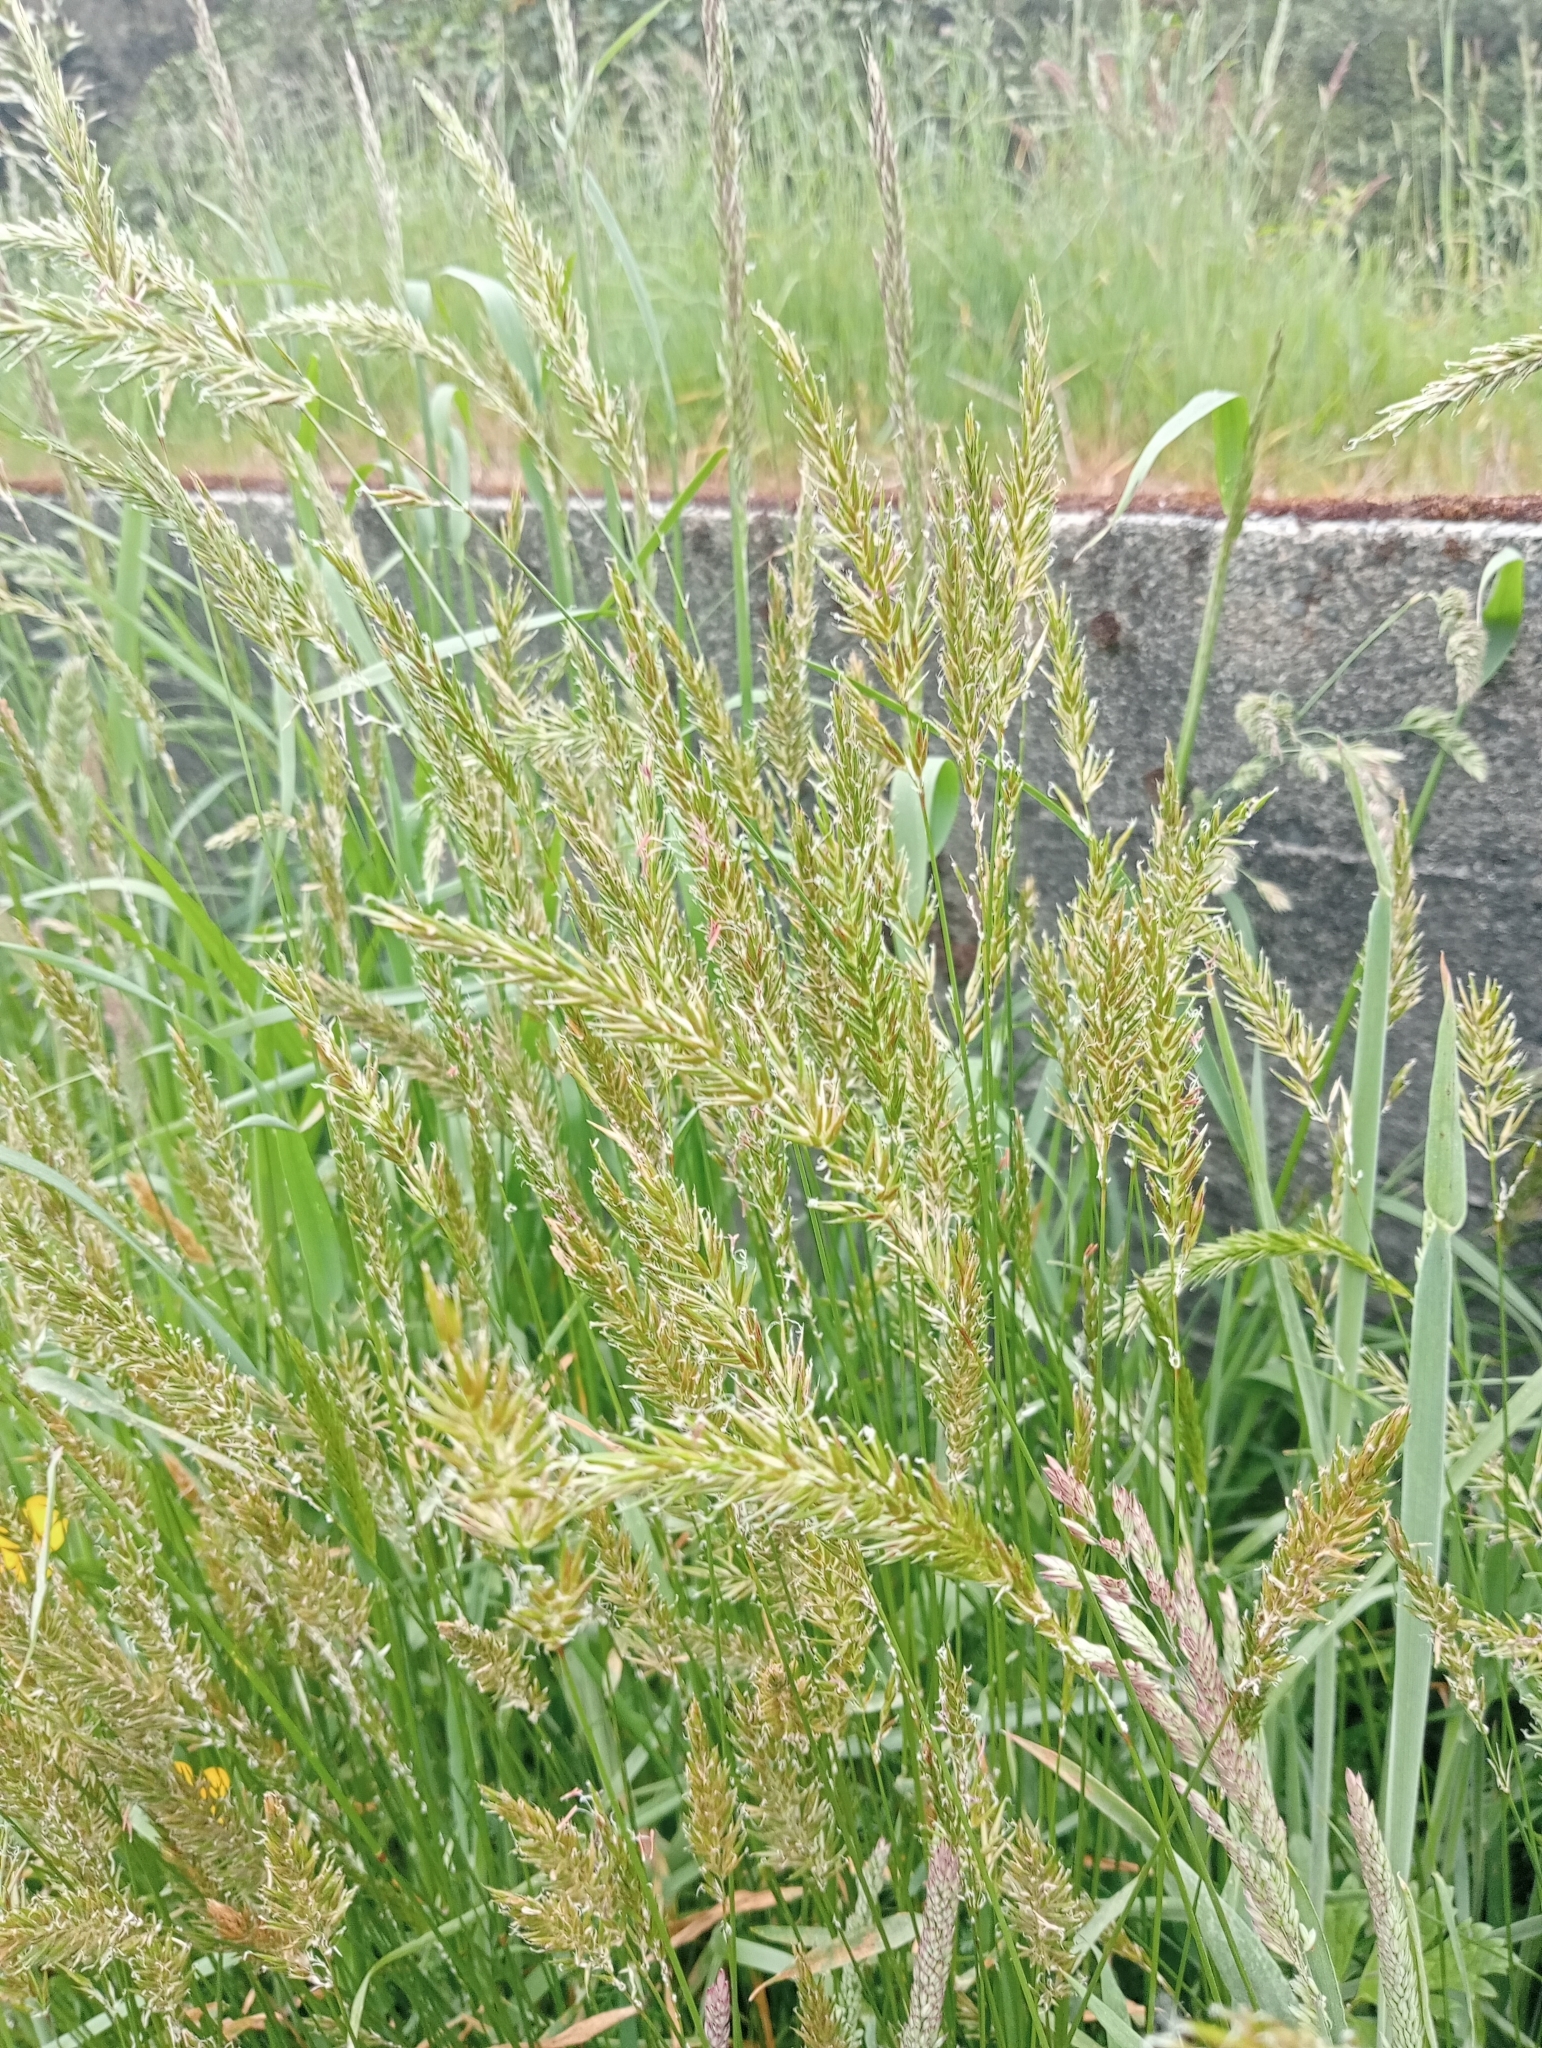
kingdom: Plantae
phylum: Tracheophyta
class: Liliopsida
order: Poales
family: Poaceae
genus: Anthoxanthum
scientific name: Anthoxanthum odoratum
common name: Sweet vernalgrass
